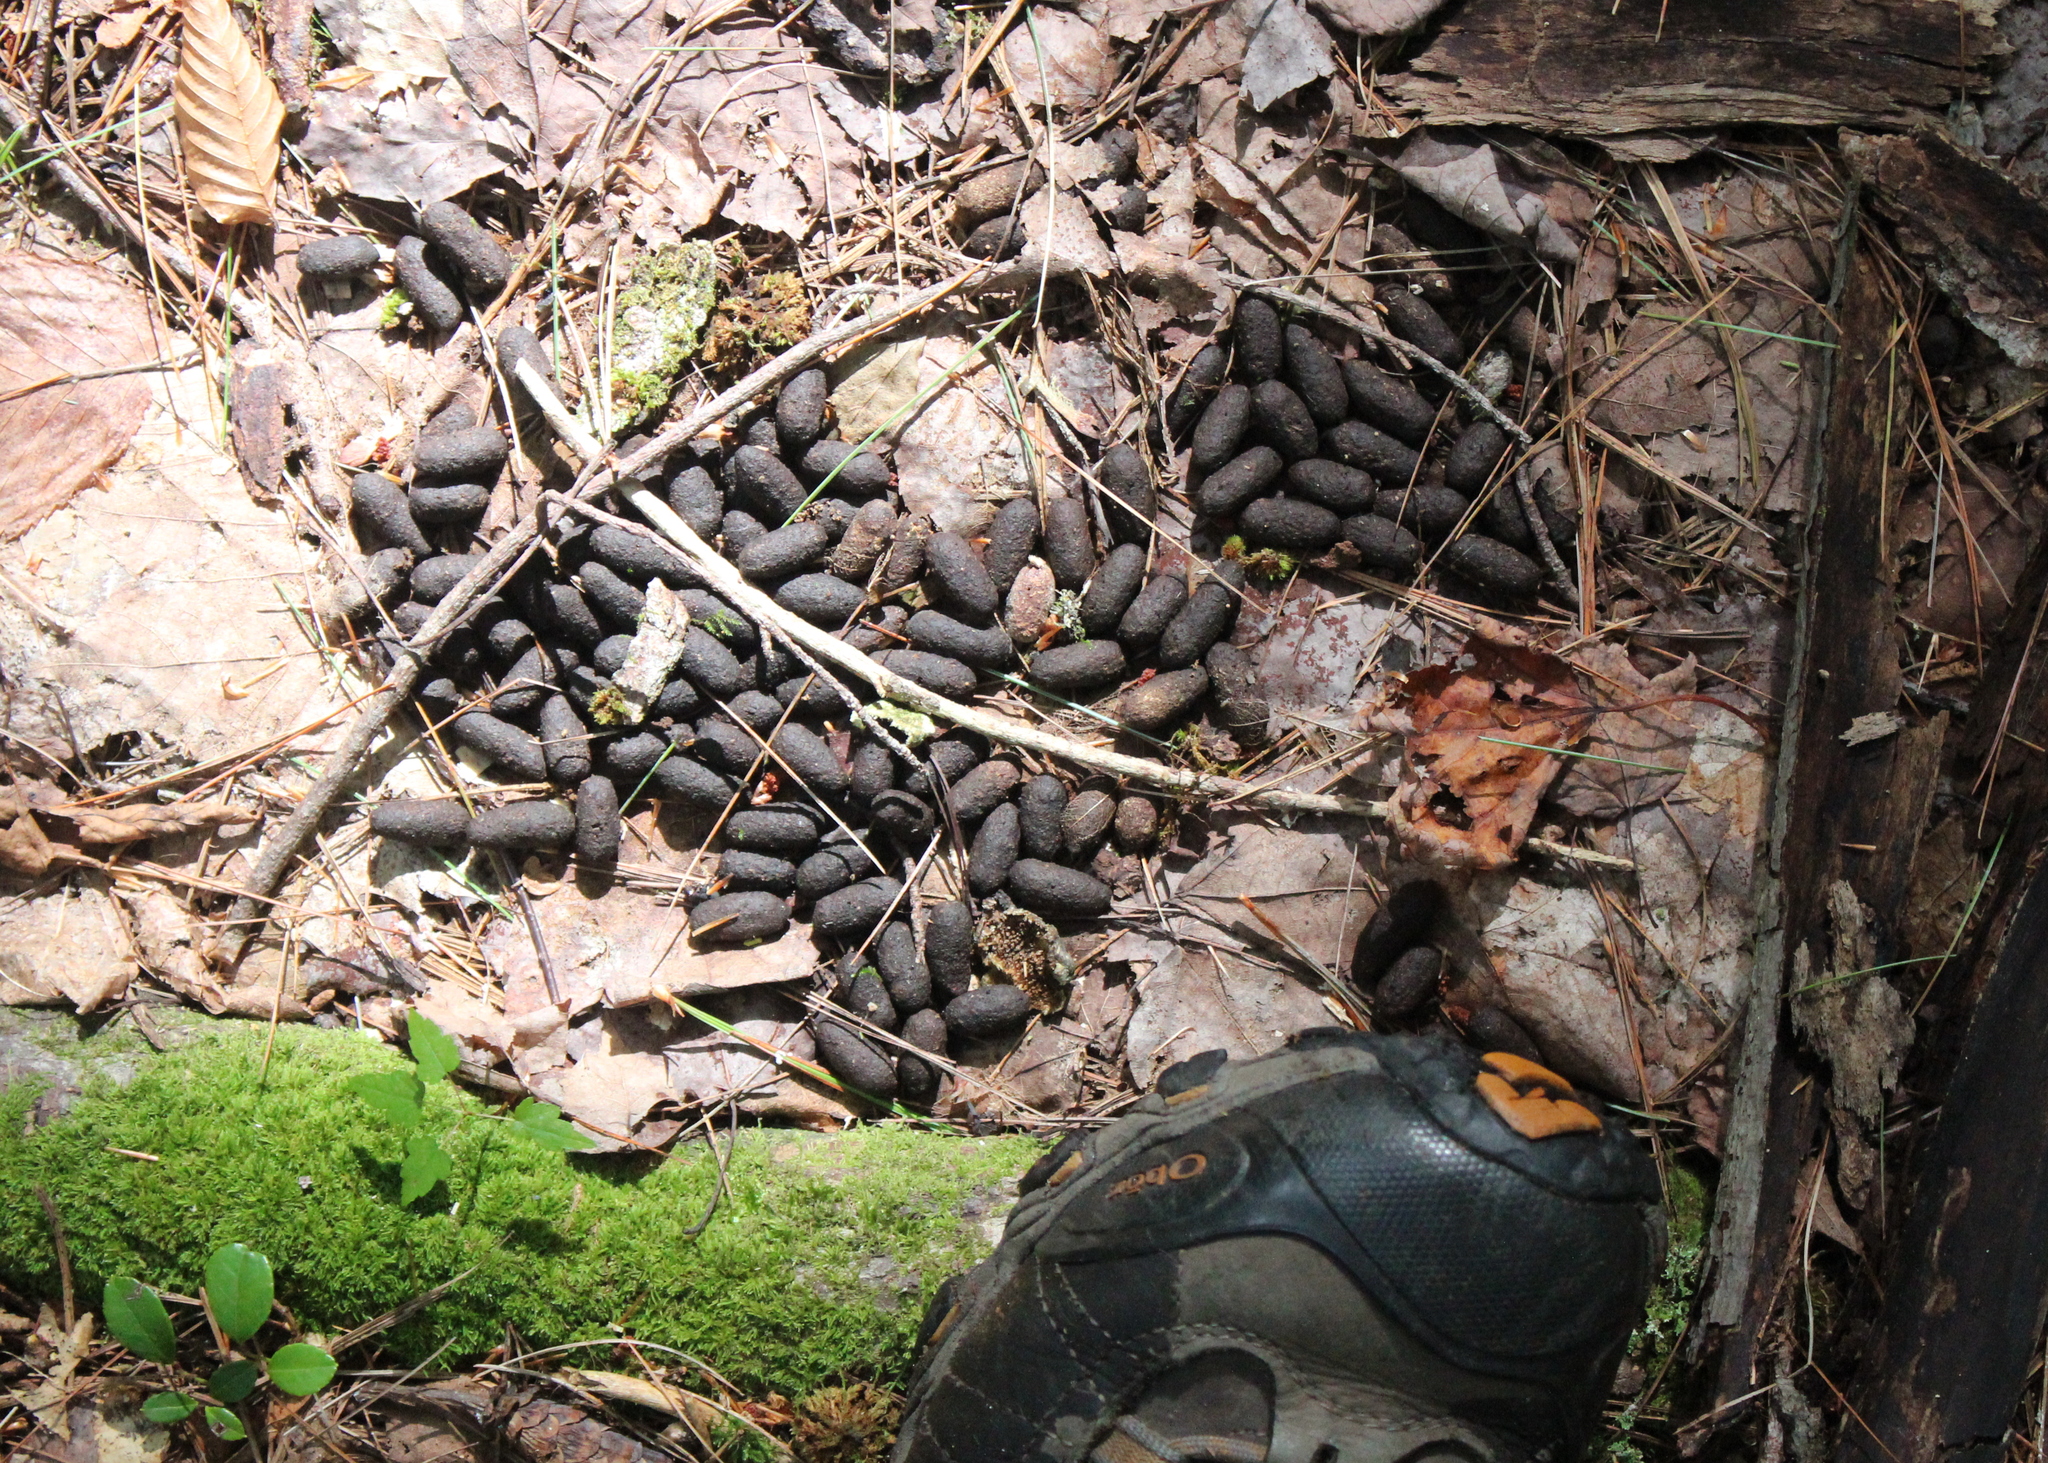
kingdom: Animalia
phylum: Chordata
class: Mammalia
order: Rodentia
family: Erethizontidae
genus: Erethizon
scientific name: Erethizon dorsatus
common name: North american porcupine
